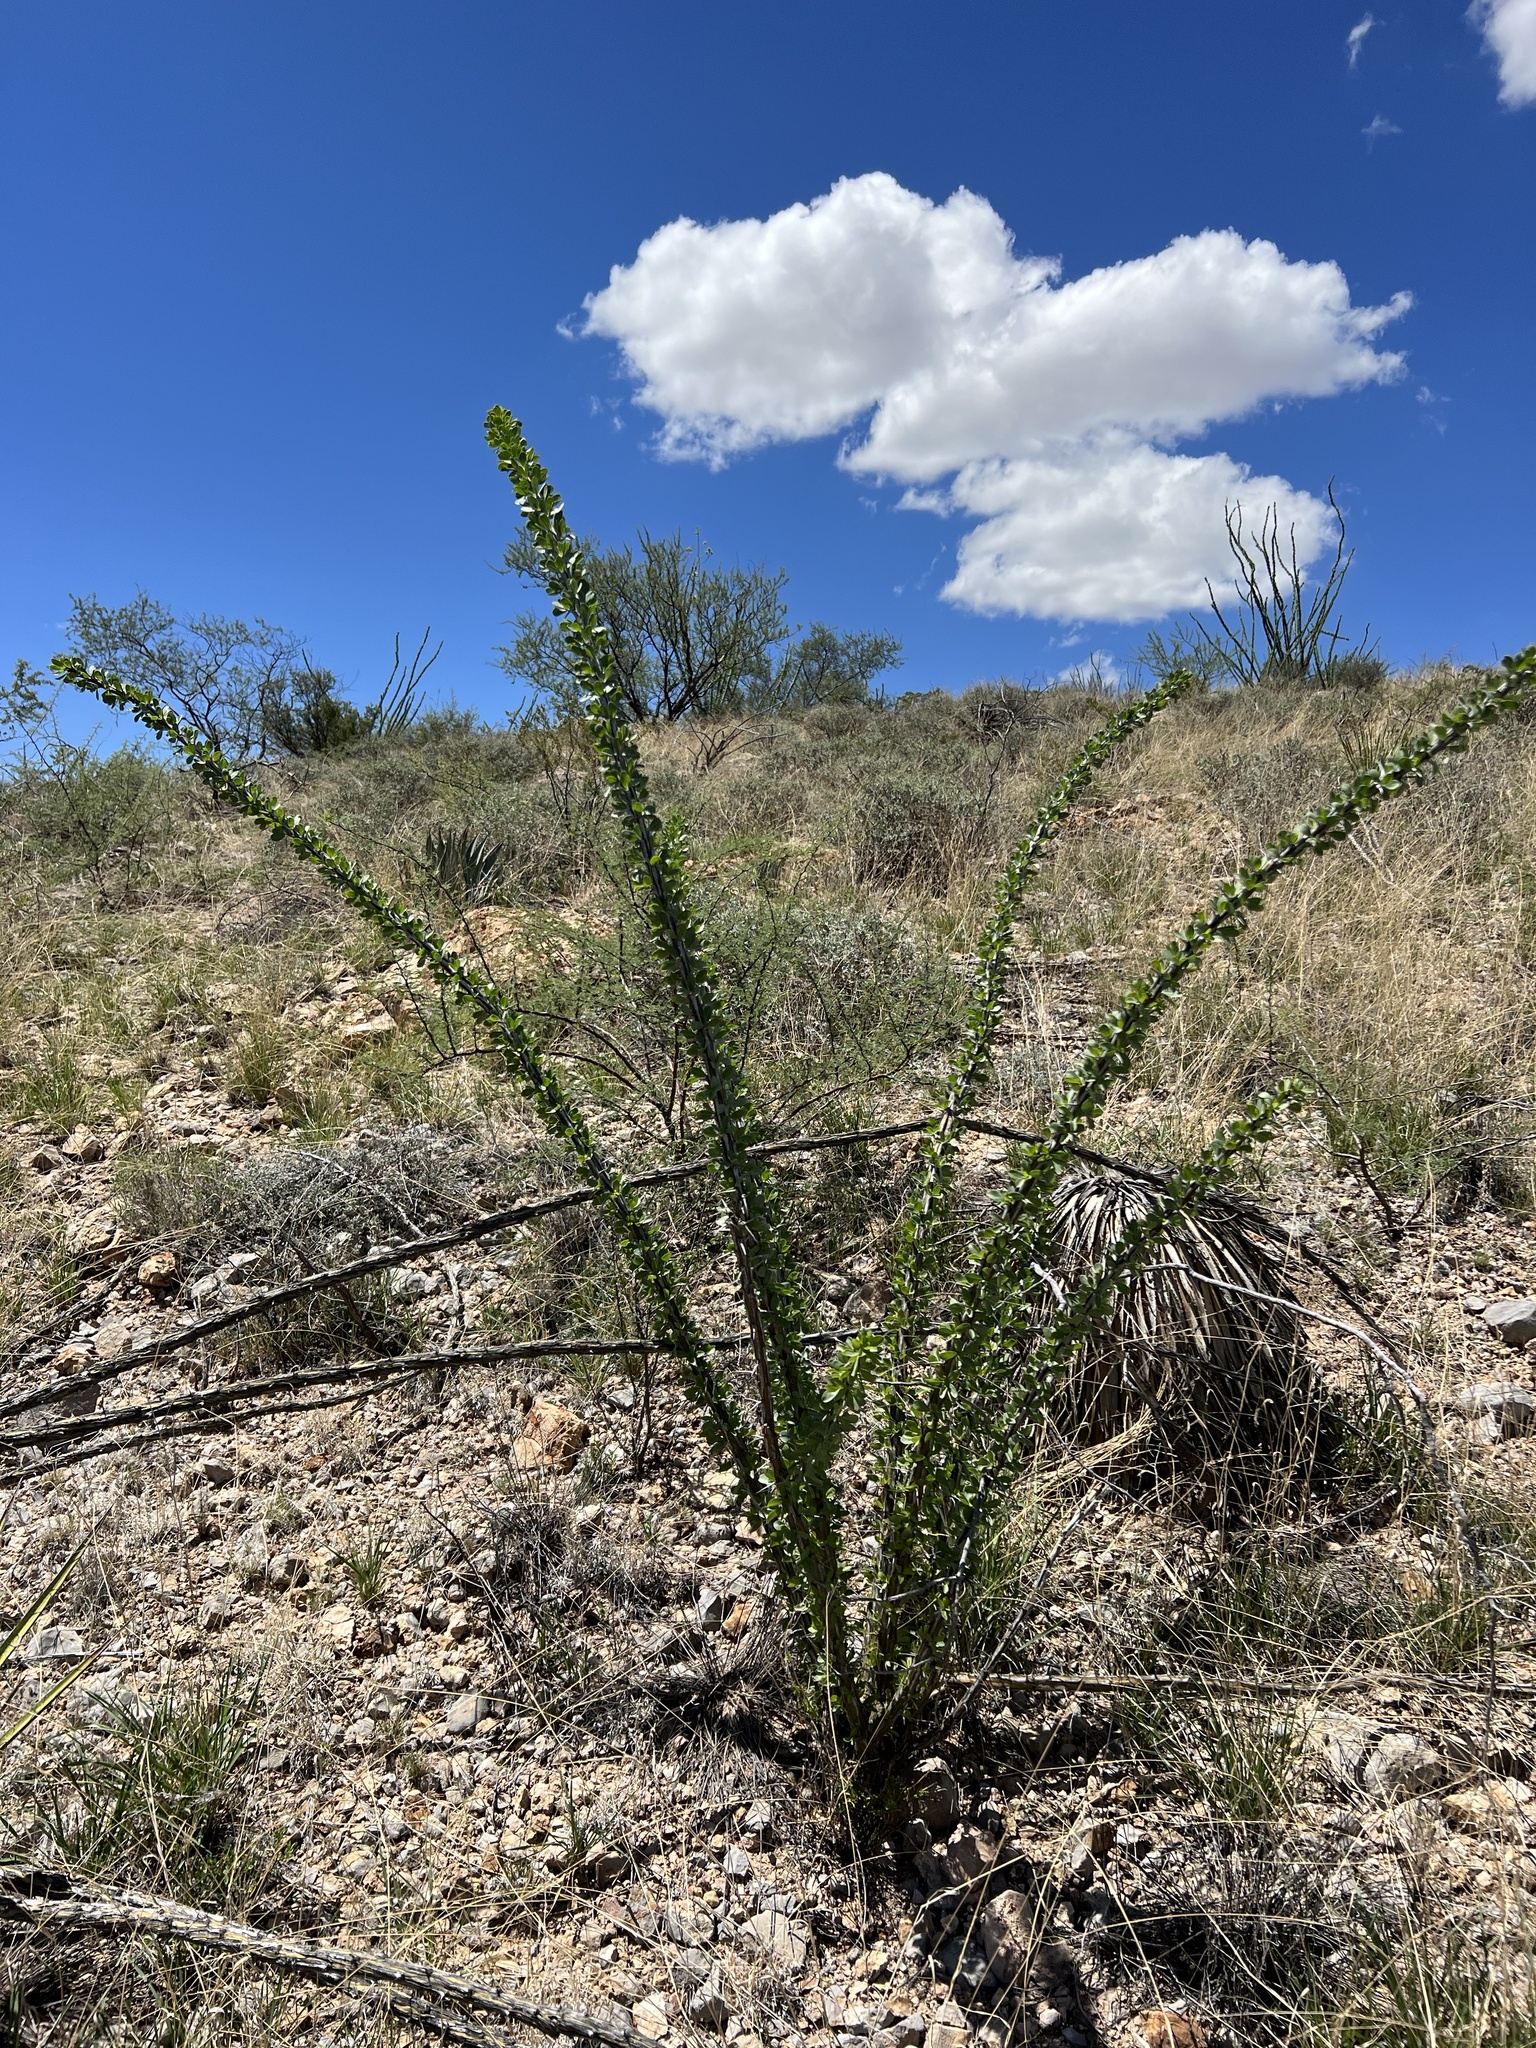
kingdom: Plantae
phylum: Tracheophyta
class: Magnoliopsida
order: Ericales
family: Fouquieriaceae
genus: Fouquieria
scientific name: Fouquieria splendens
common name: Vine-cactus
